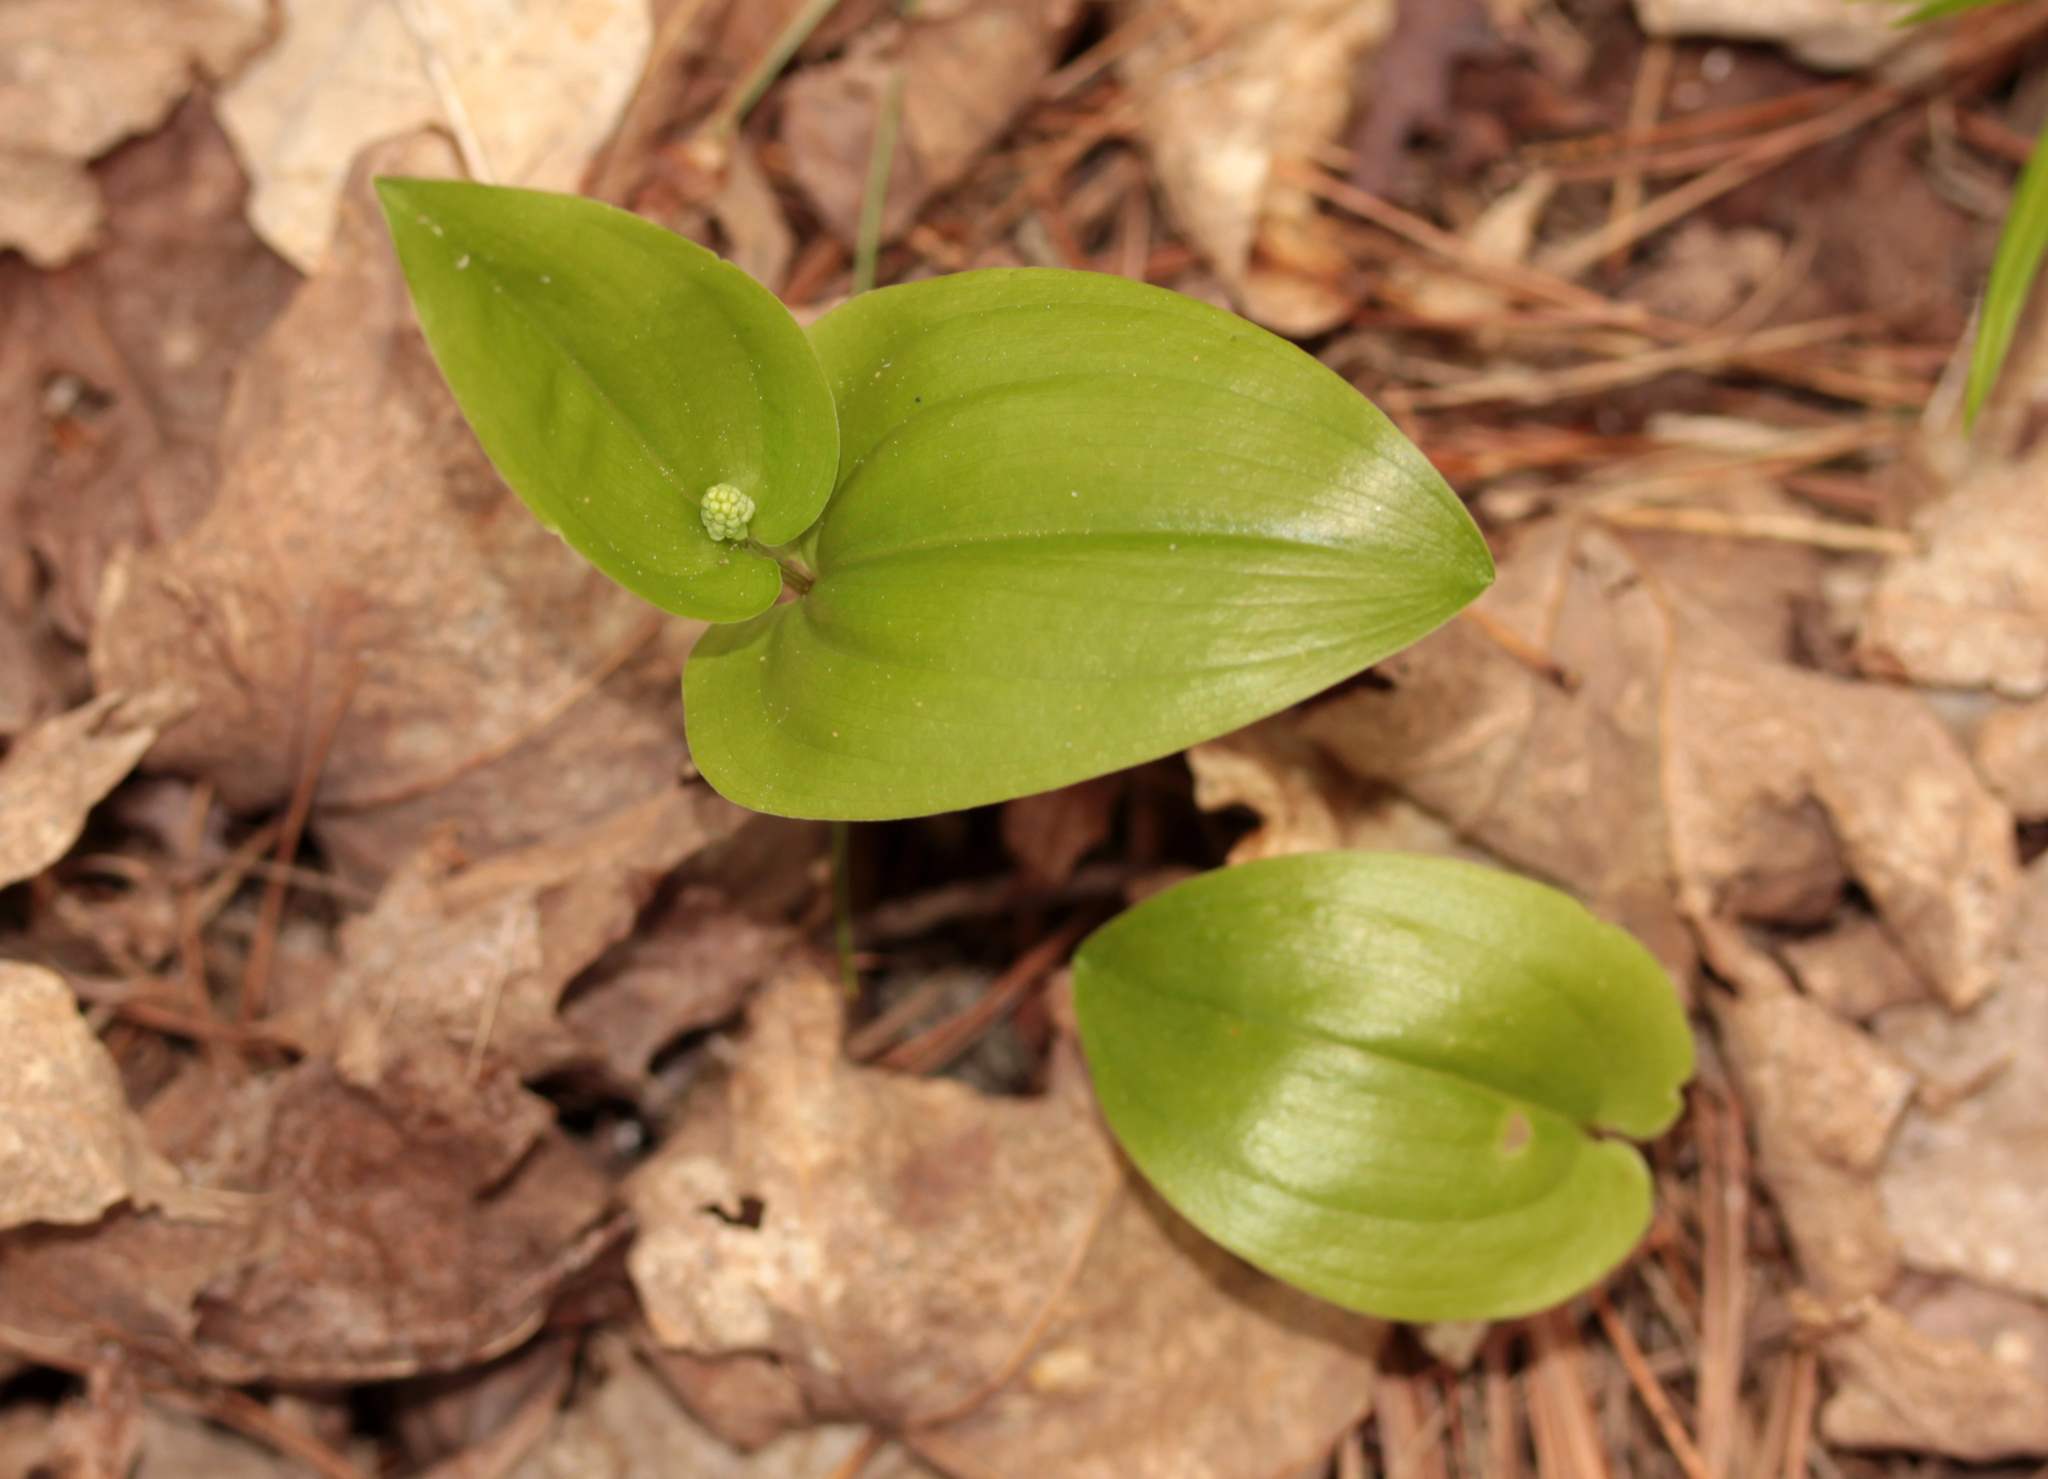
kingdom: Plantae
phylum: Tracheophyta
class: Liliopsida
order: Asparagales
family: Asparagaceae
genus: Maianthemum
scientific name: Maianthemum canadense
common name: False lily-of-the-valley
